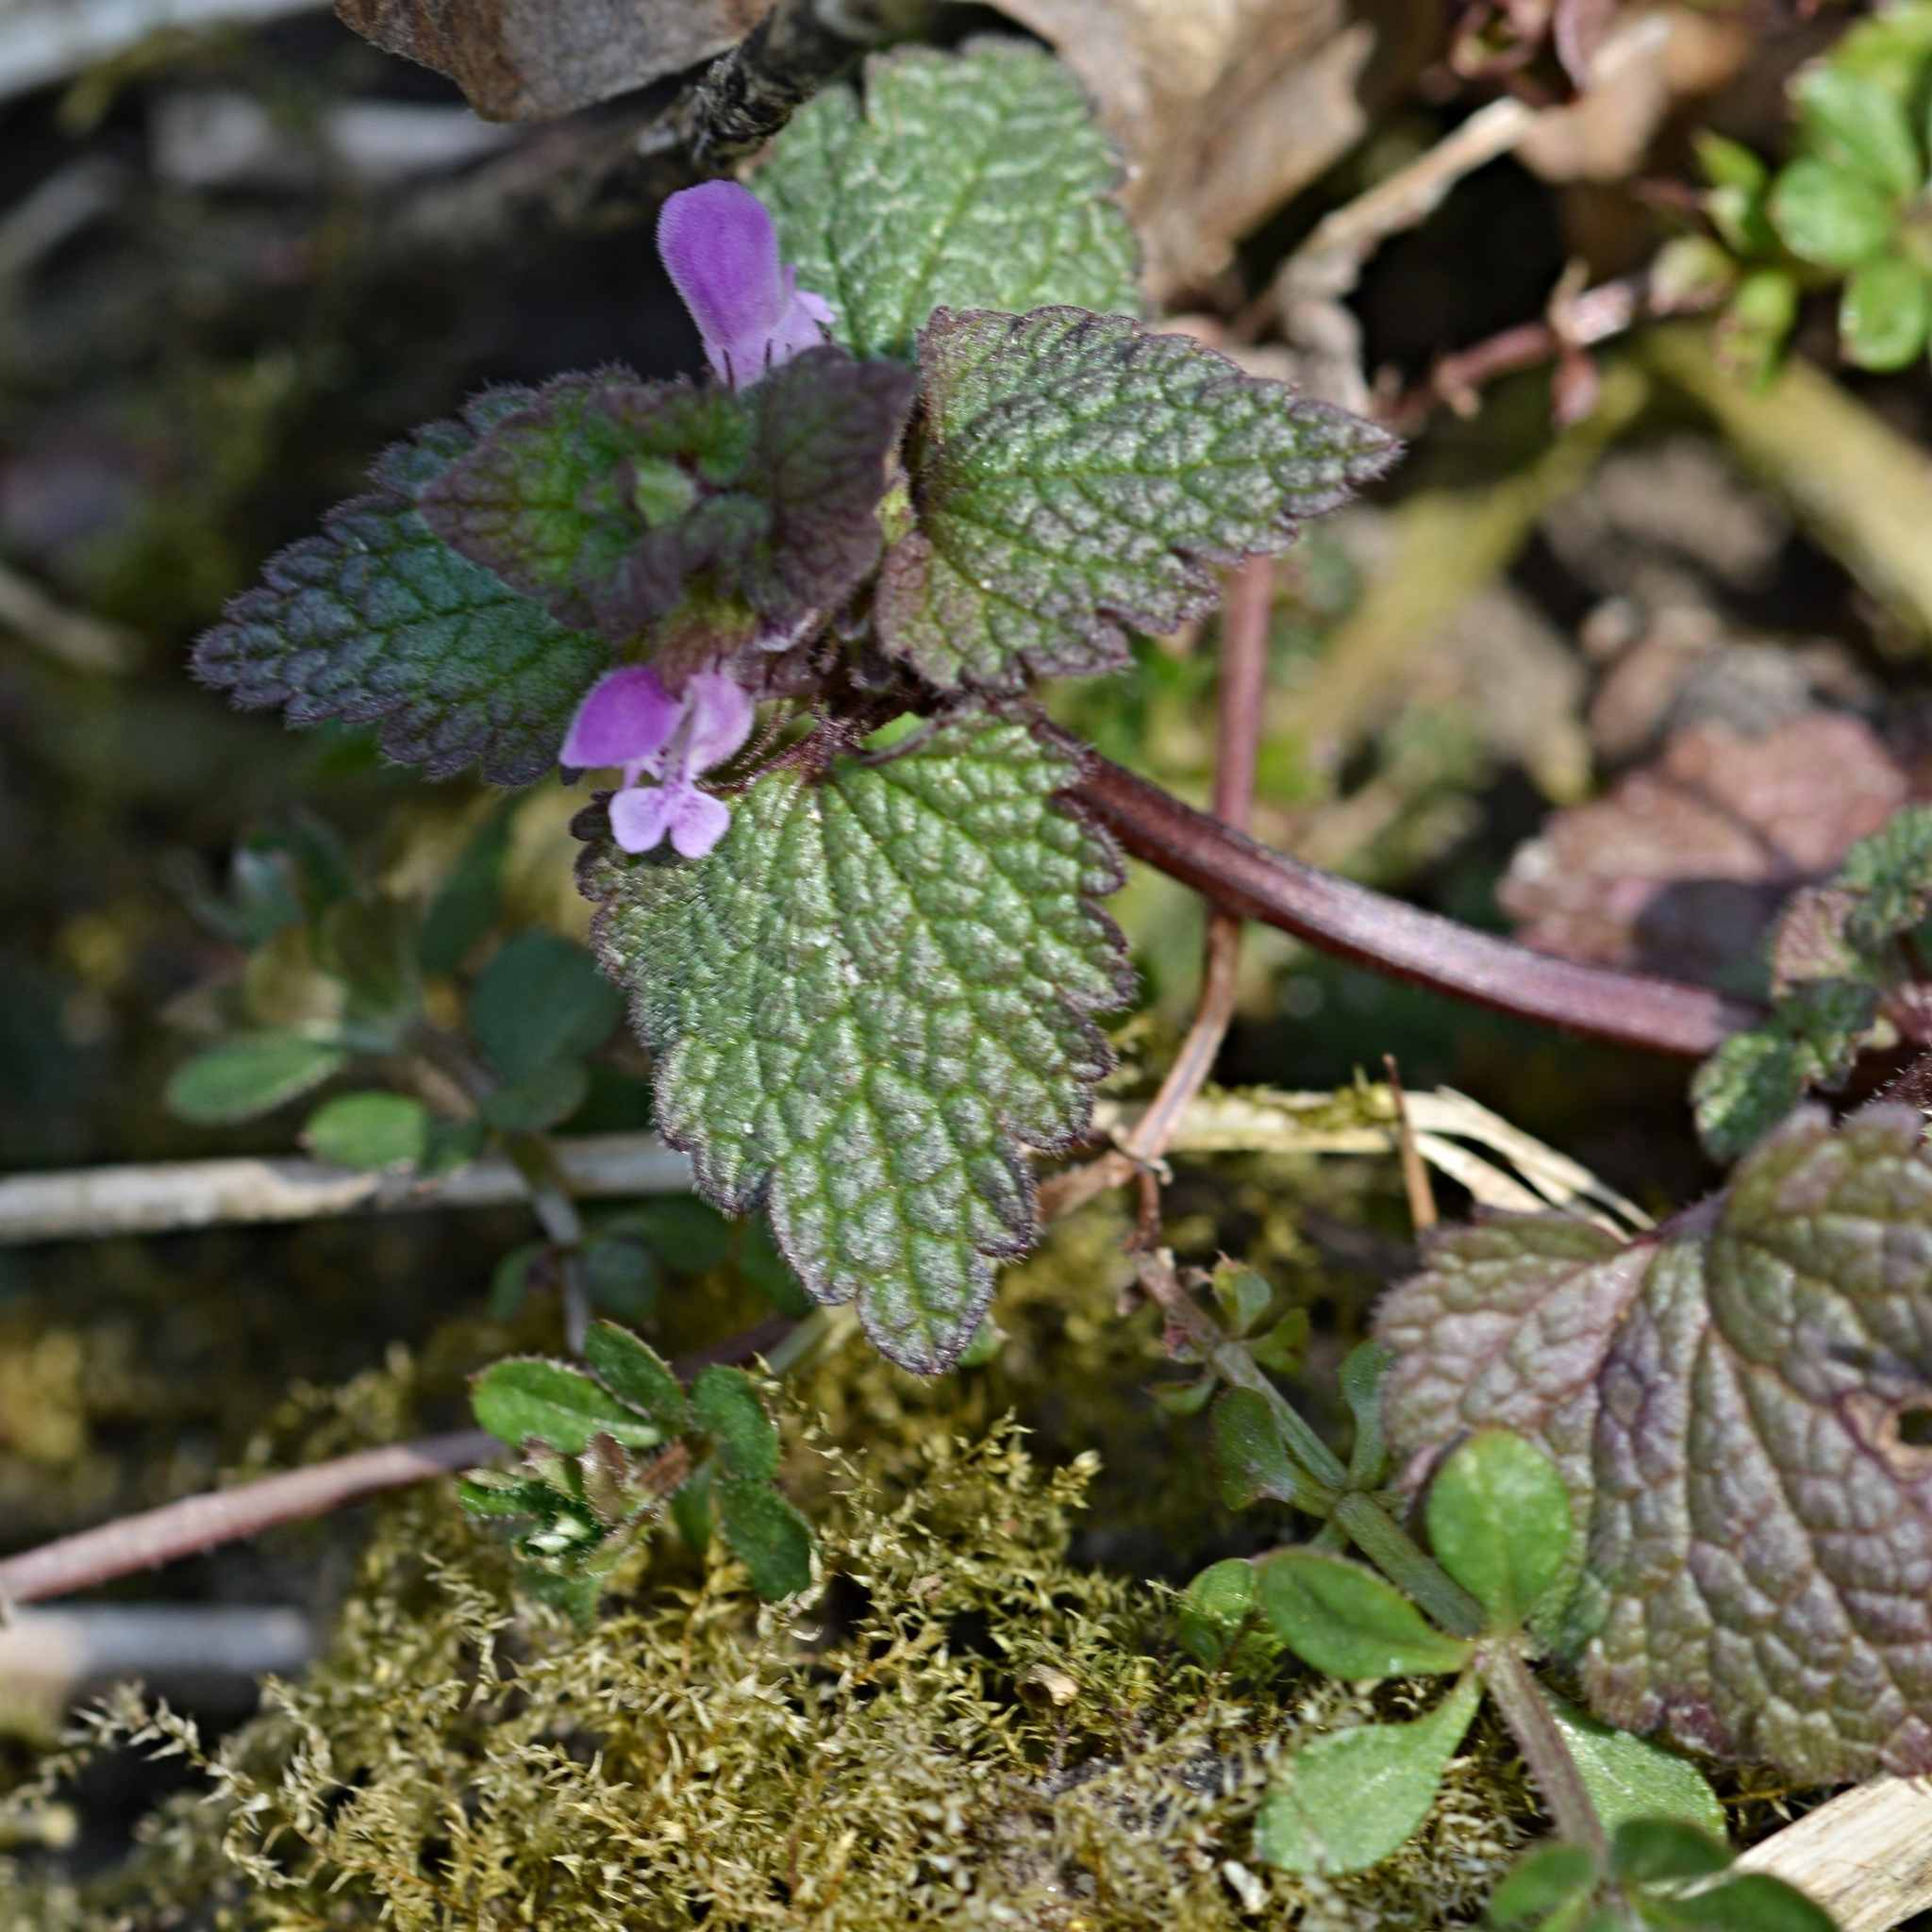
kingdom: Plantae
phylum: Tracheophyta
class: Magnoliopsida
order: Lamiales
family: Lamiaceae
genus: Lamium
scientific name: Lamium purpureum
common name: Red dead-nettle
